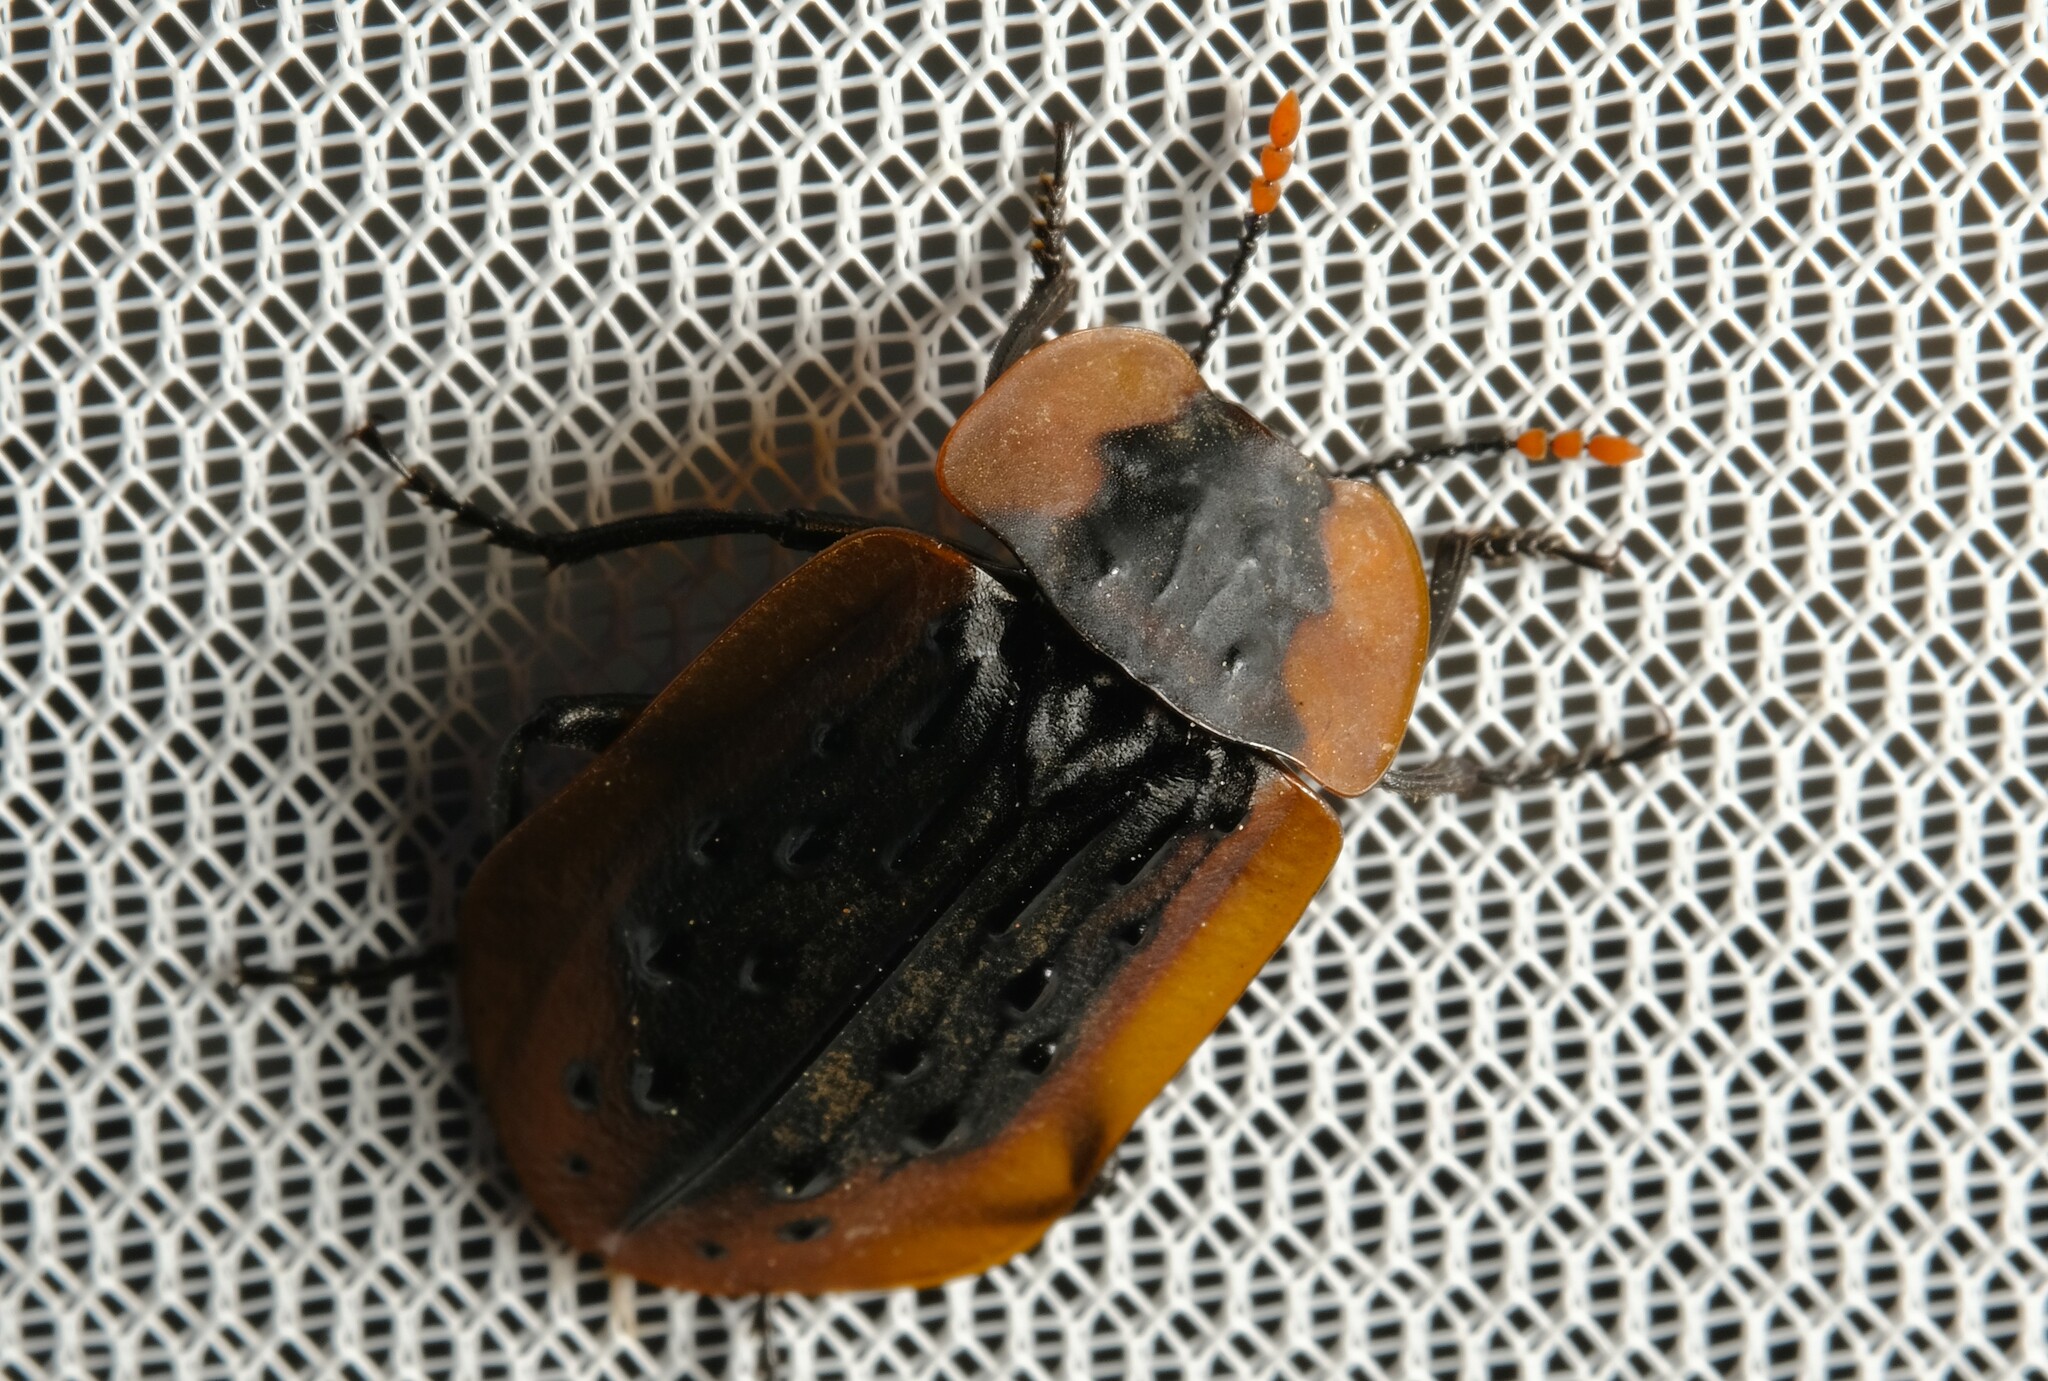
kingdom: Animalia
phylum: Arthropoda
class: Insecta
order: Coleoptera
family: Staphylinidae
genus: Ptomaphila
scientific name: Ptomaphila lacrymosa
